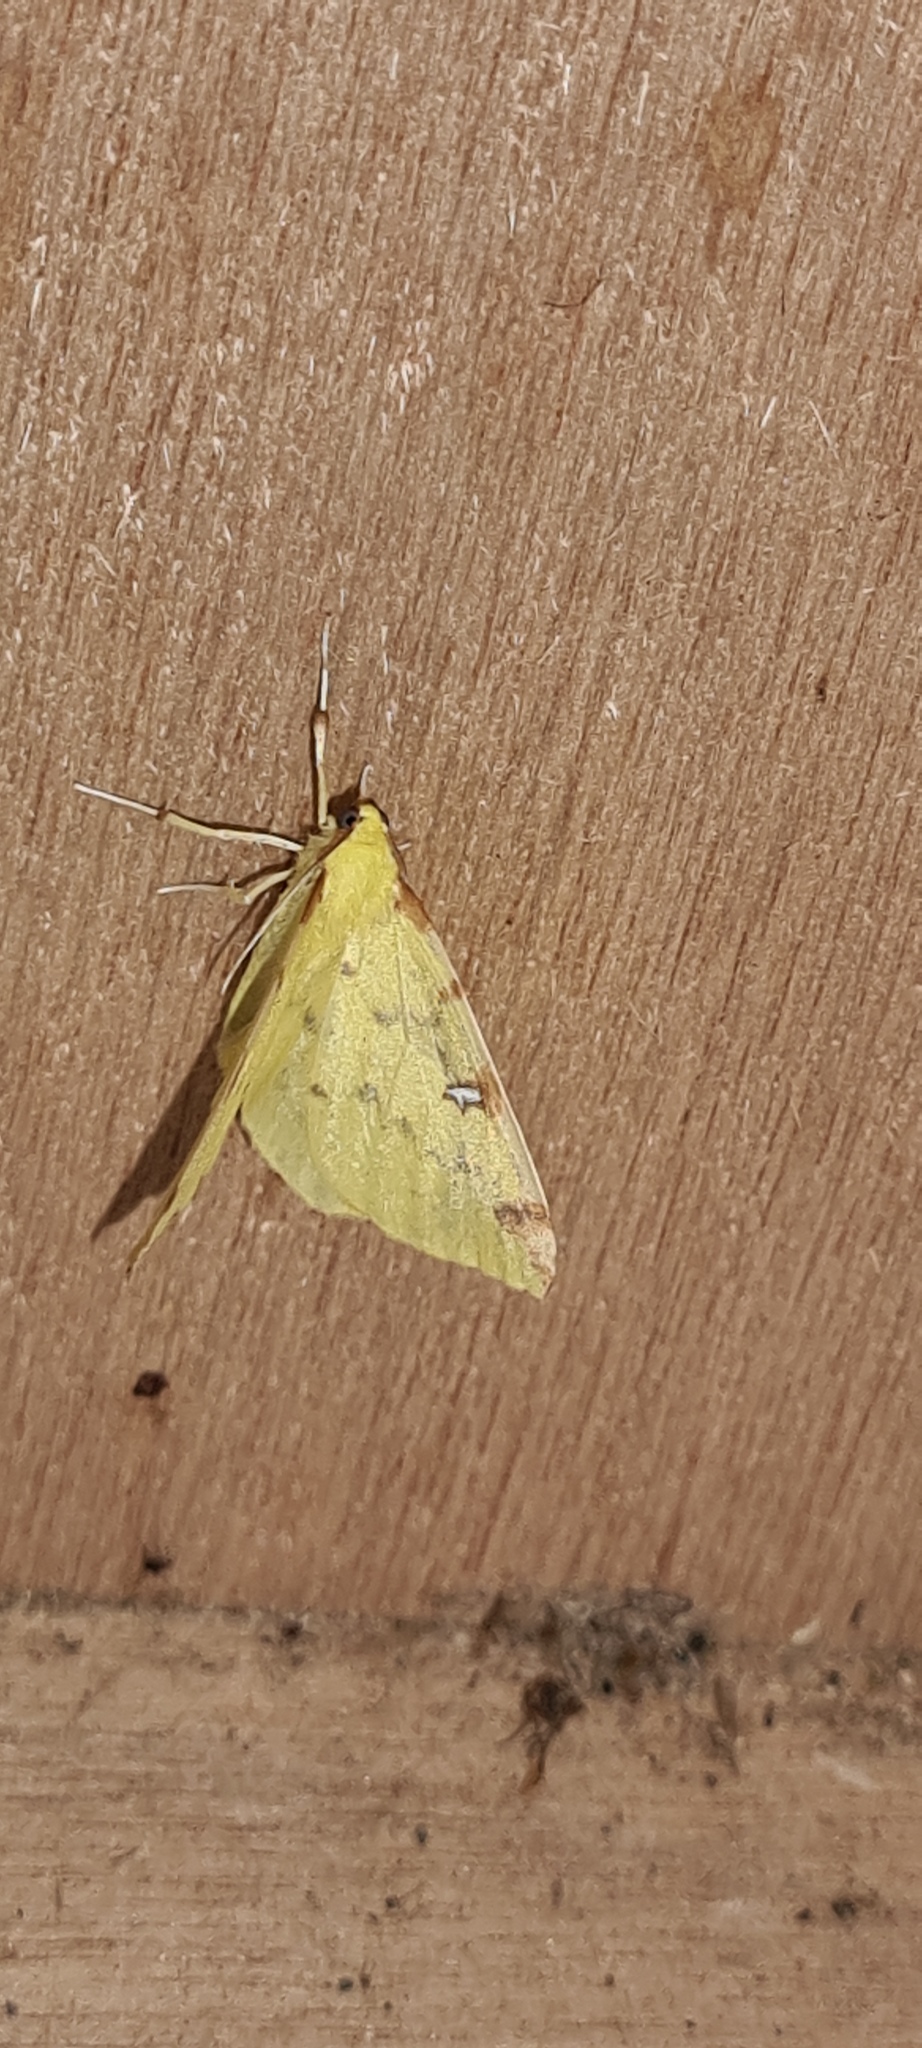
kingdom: Animalia
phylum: Arthropoda
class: Insecta
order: Lepidoptera
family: Geometridae
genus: Opisthograptis
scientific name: Opisthograptis luteolata
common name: Brimstone moth
